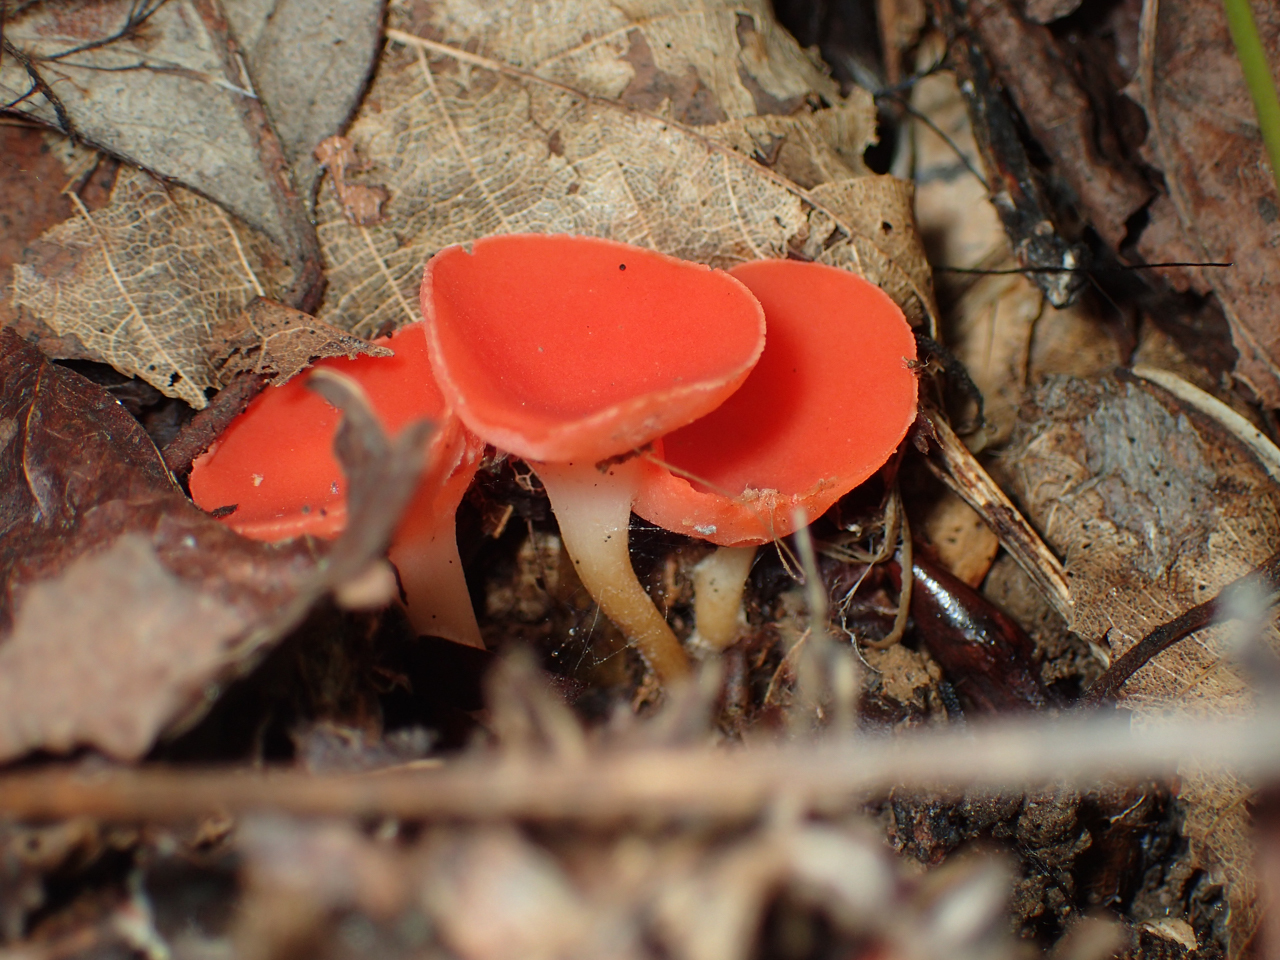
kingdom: Fungi
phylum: Ascomycota
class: Pezizomycetes
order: Pezizales
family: Sarcoscyphaceae
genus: Sarcoscypha
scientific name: Sarcoscypha occidentalis
